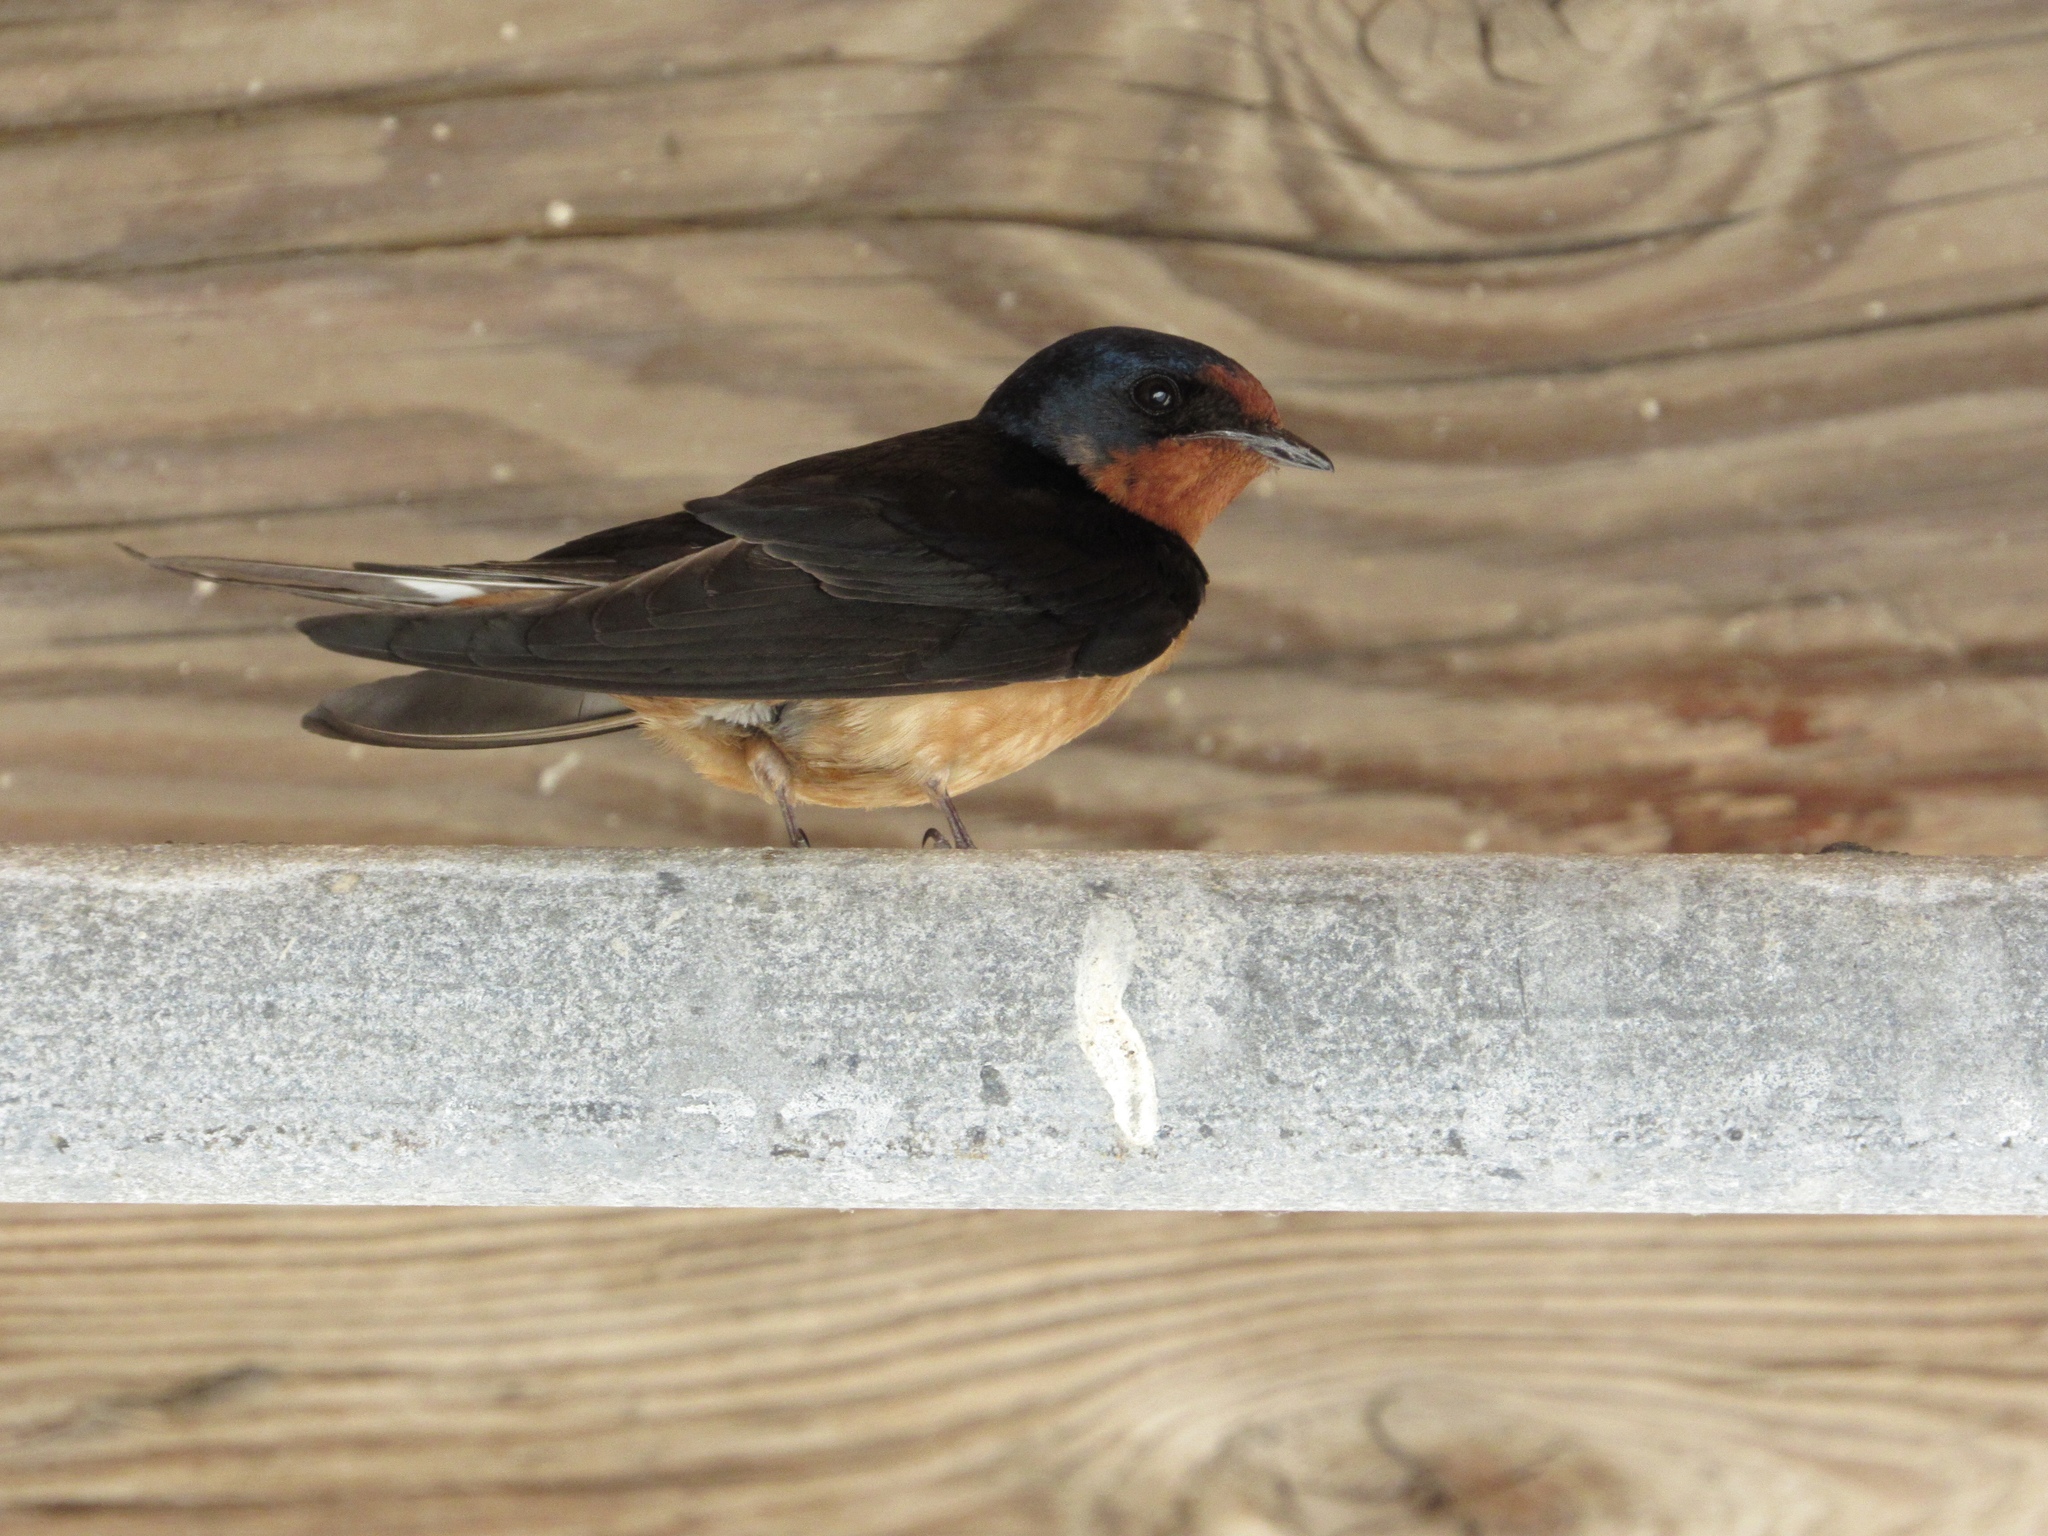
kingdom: Animalia
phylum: Chordata
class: Aves
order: Passeriformes
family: Hirundinidae
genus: Hirundo
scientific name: Hirundo rustica
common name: Barn swallow
